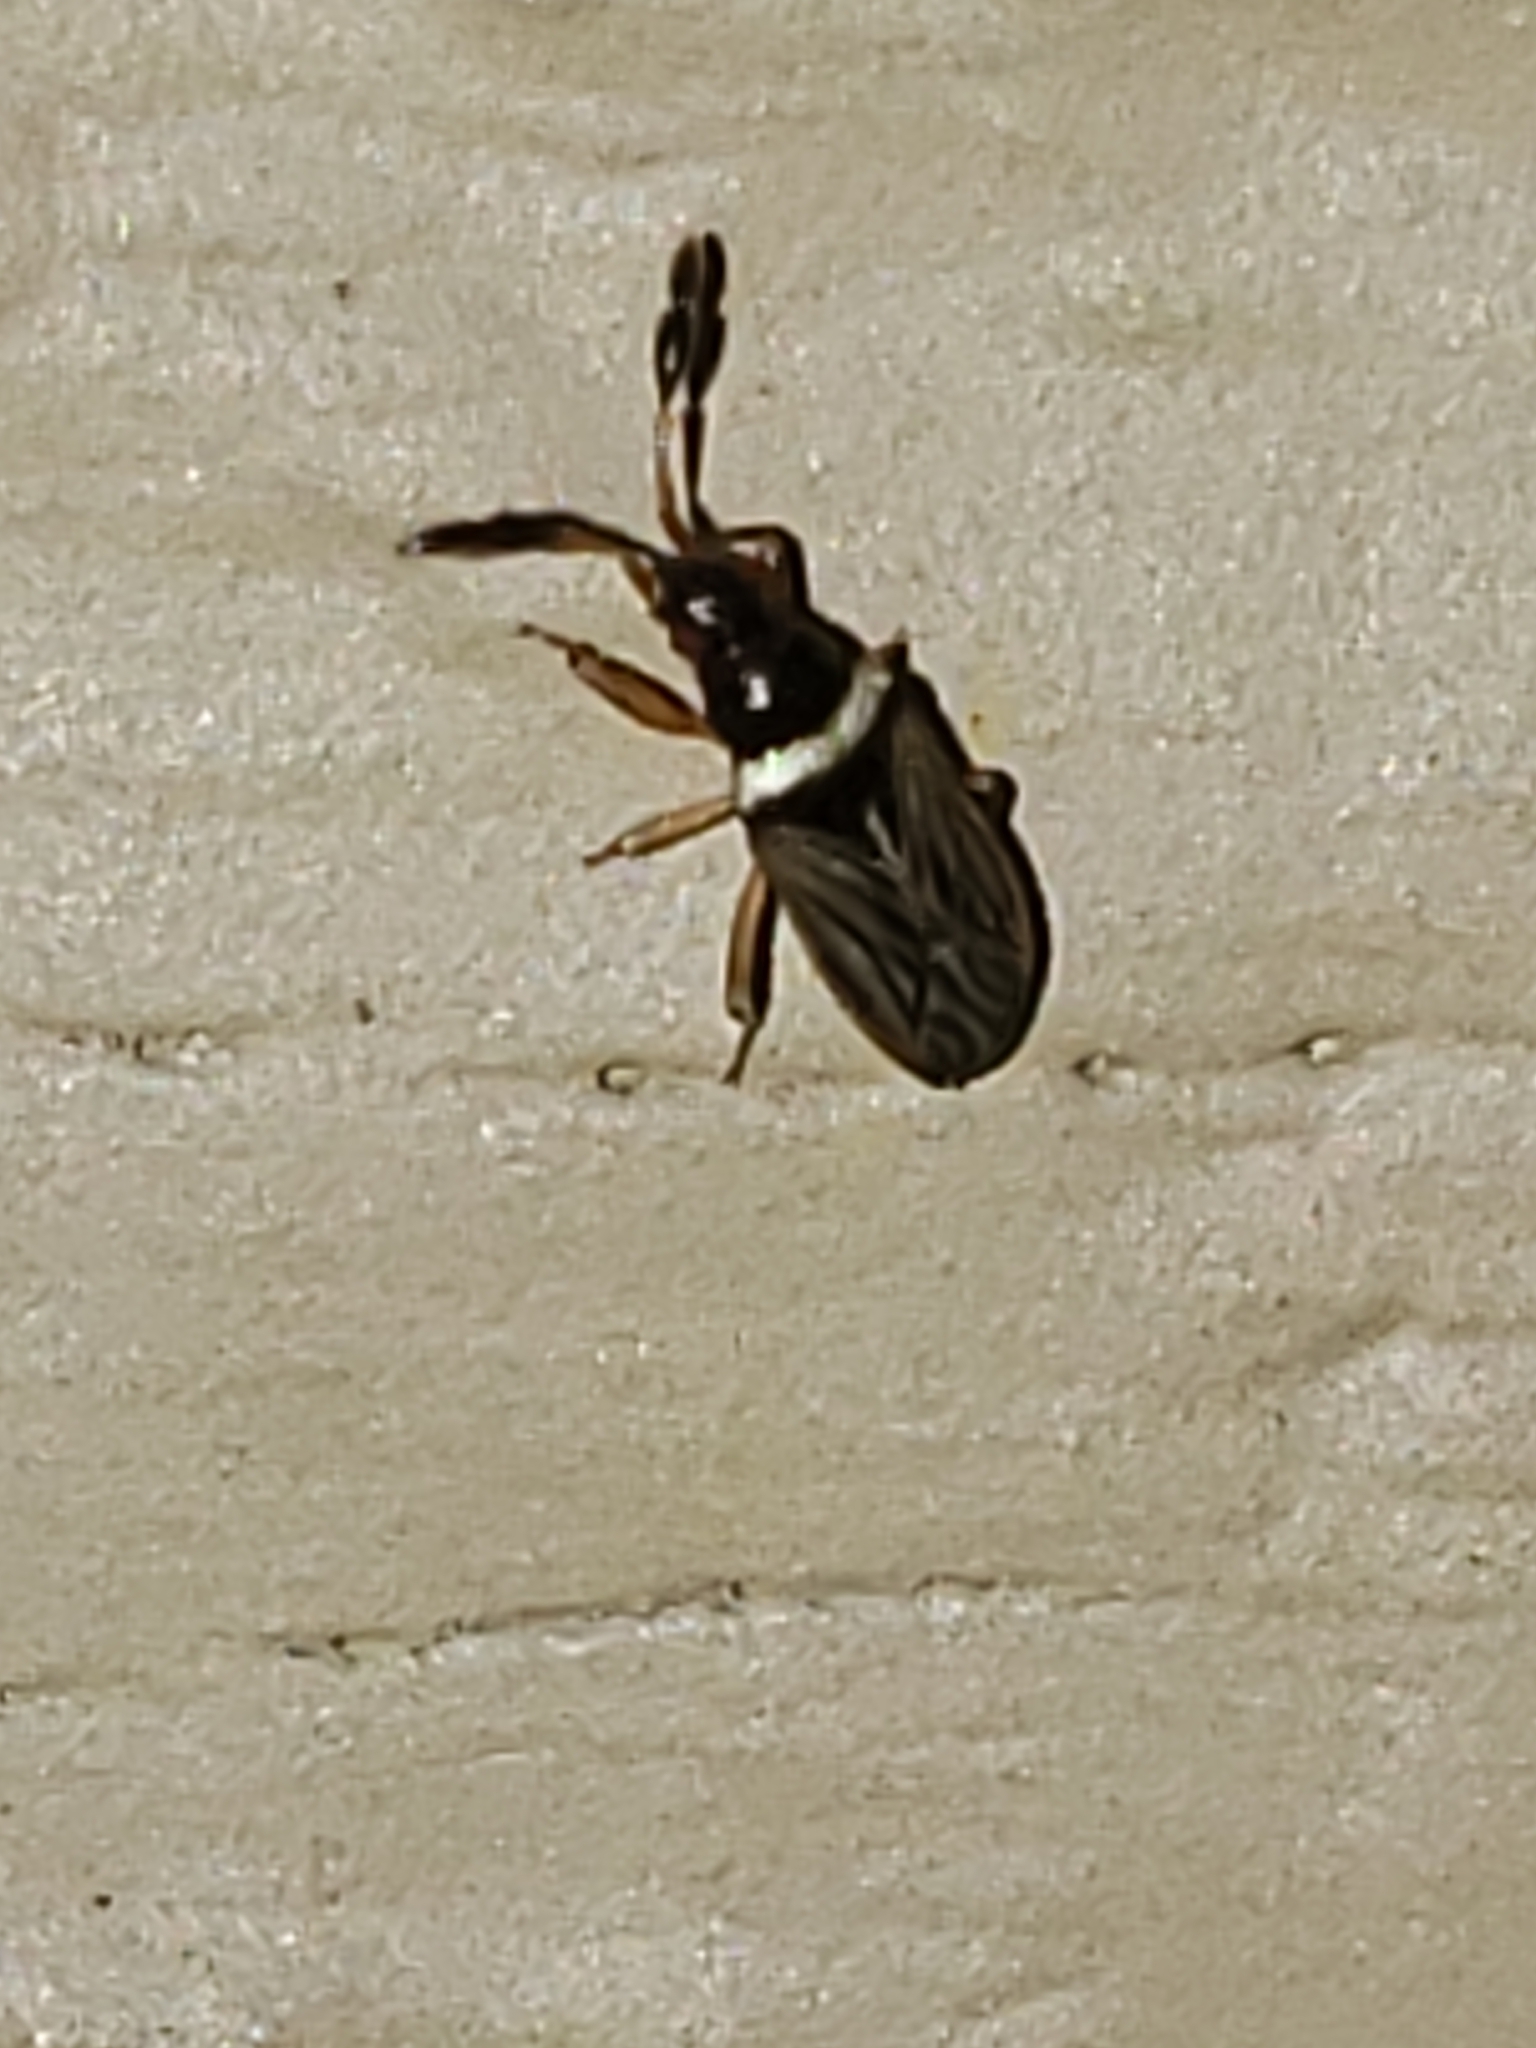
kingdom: Animalia
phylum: Arthropoda
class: Insecta
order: Hemiptera
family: Rhyparochromidae
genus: Ptochiomera
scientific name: Ptochiomera nodosa
